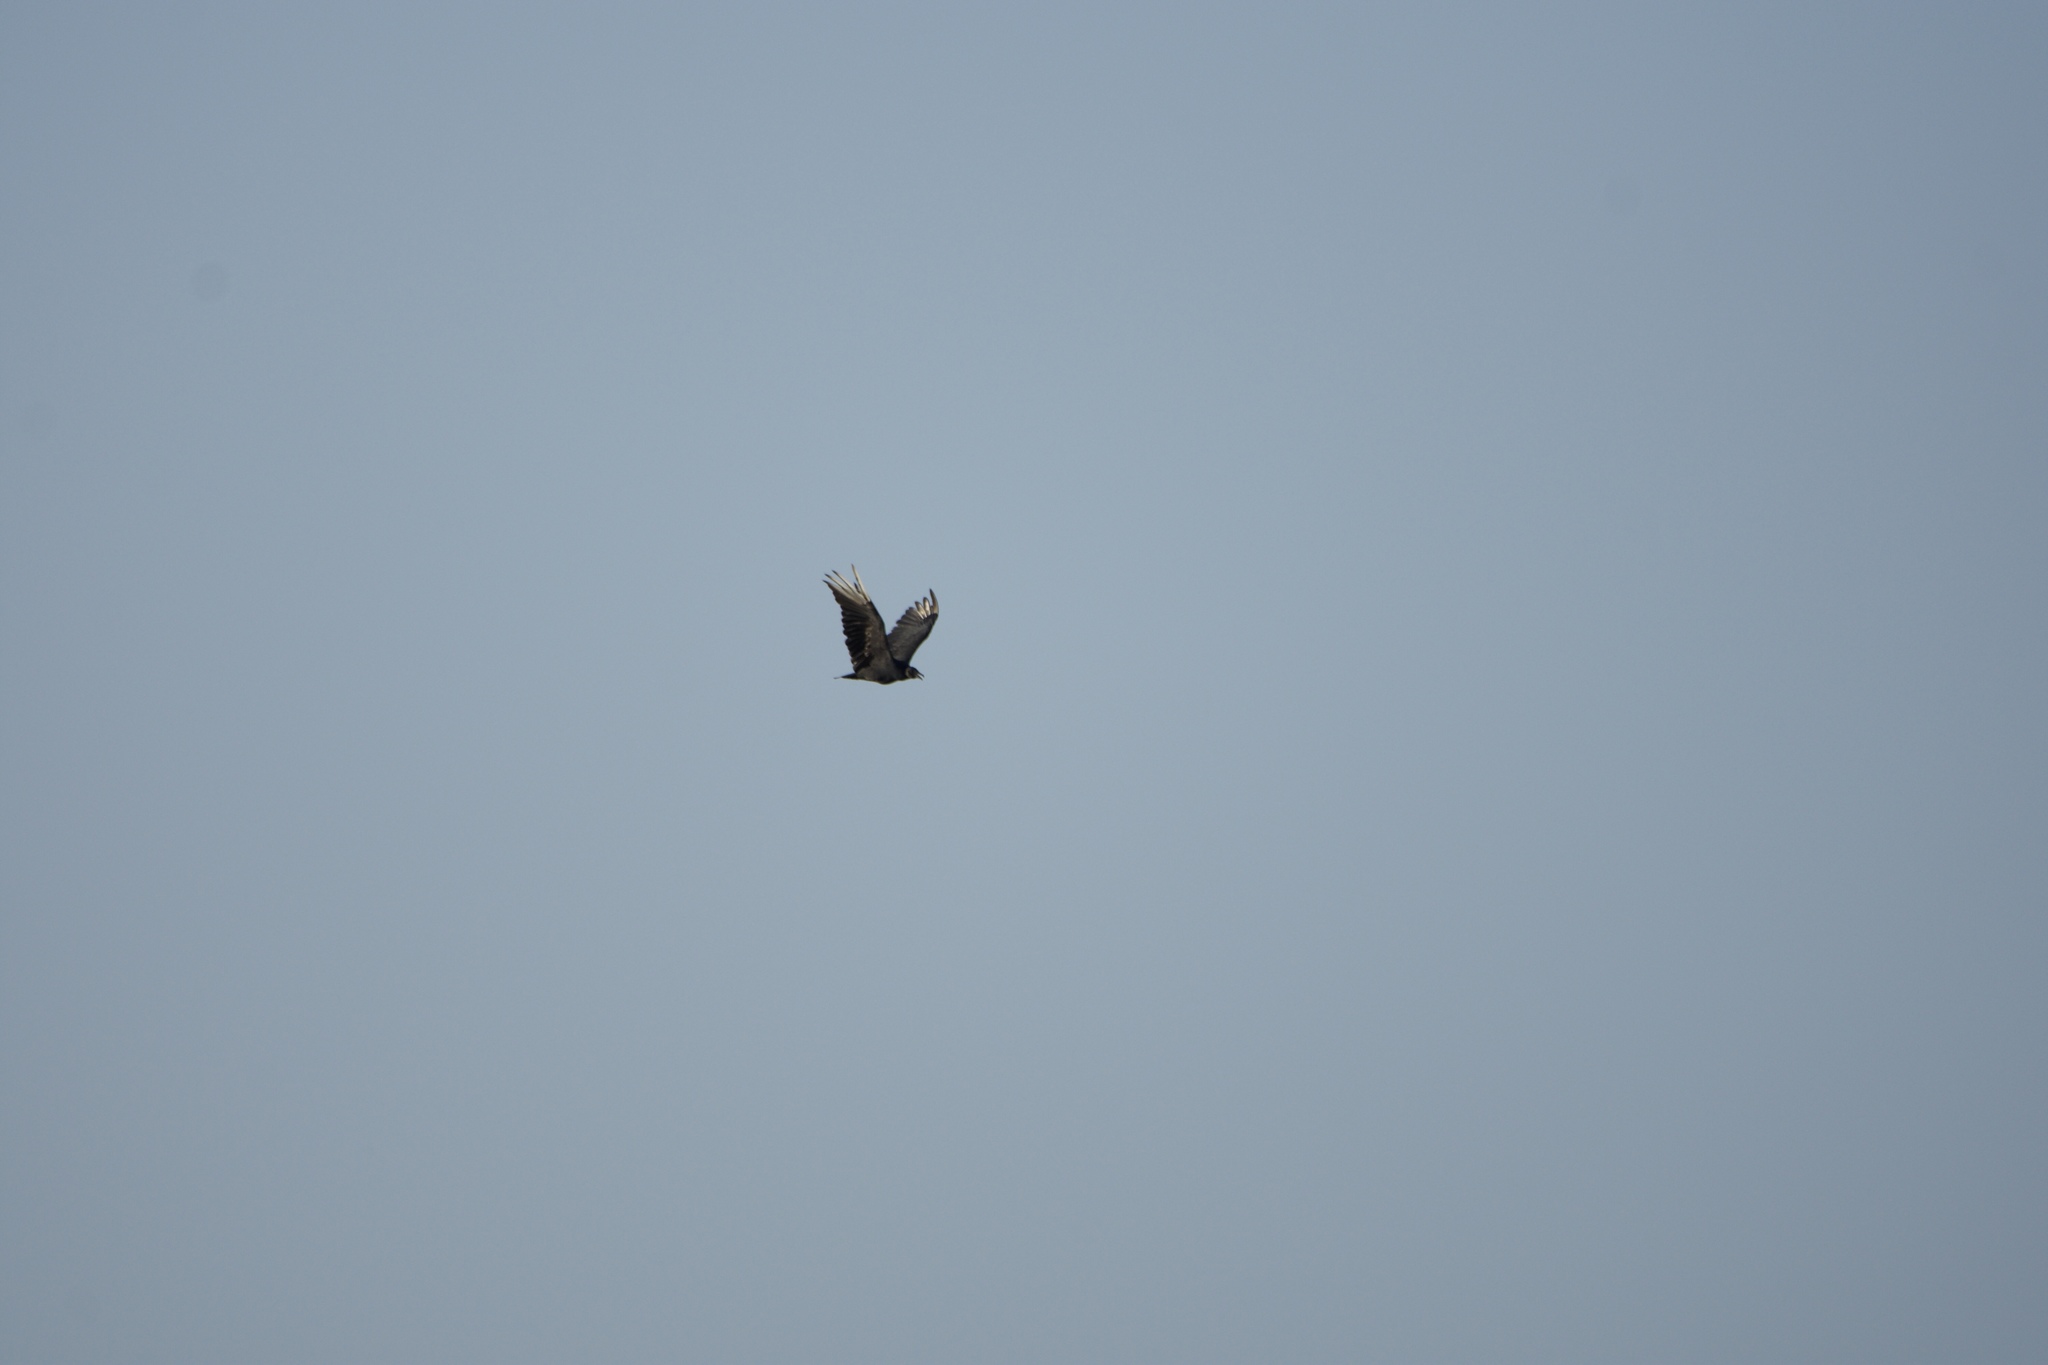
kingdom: Animalia
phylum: Chordata
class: Aves
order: Accipitriformes
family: Cathartidae
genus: Coragyps
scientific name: Coragyps atratus
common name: Black vulture
